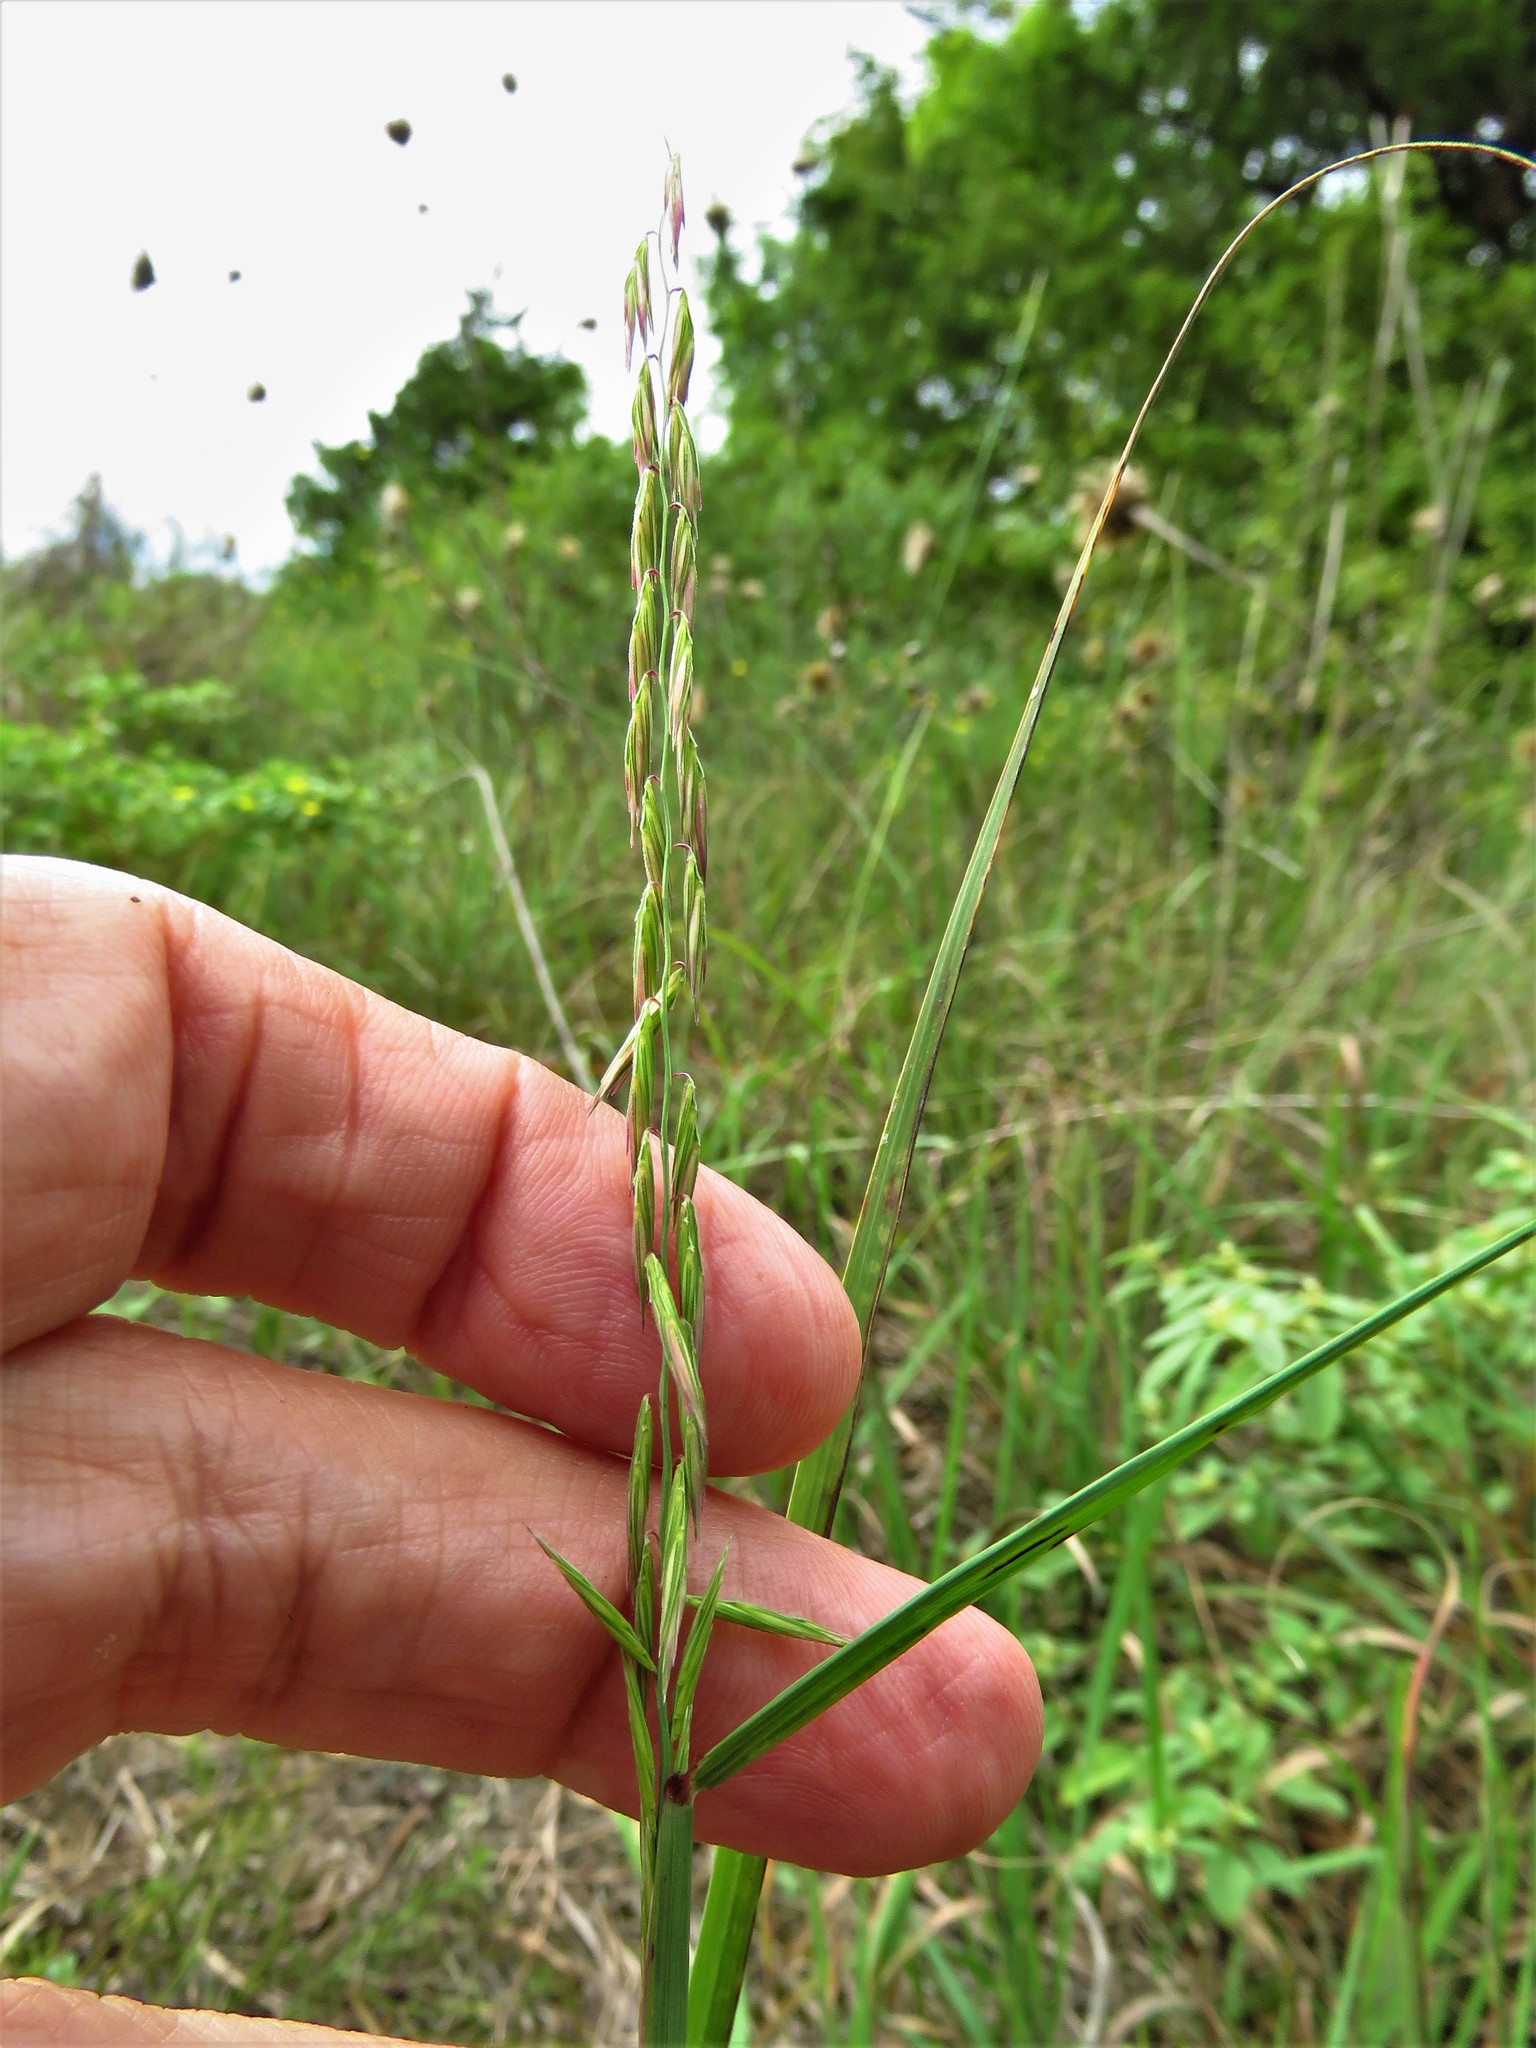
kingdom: Plantae
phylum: Tracheophyta
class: Liliopsida
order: Poales
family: Poaceae
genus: Bouteloua
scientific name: Bouteloua curtipendula
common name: Side-oats grama
